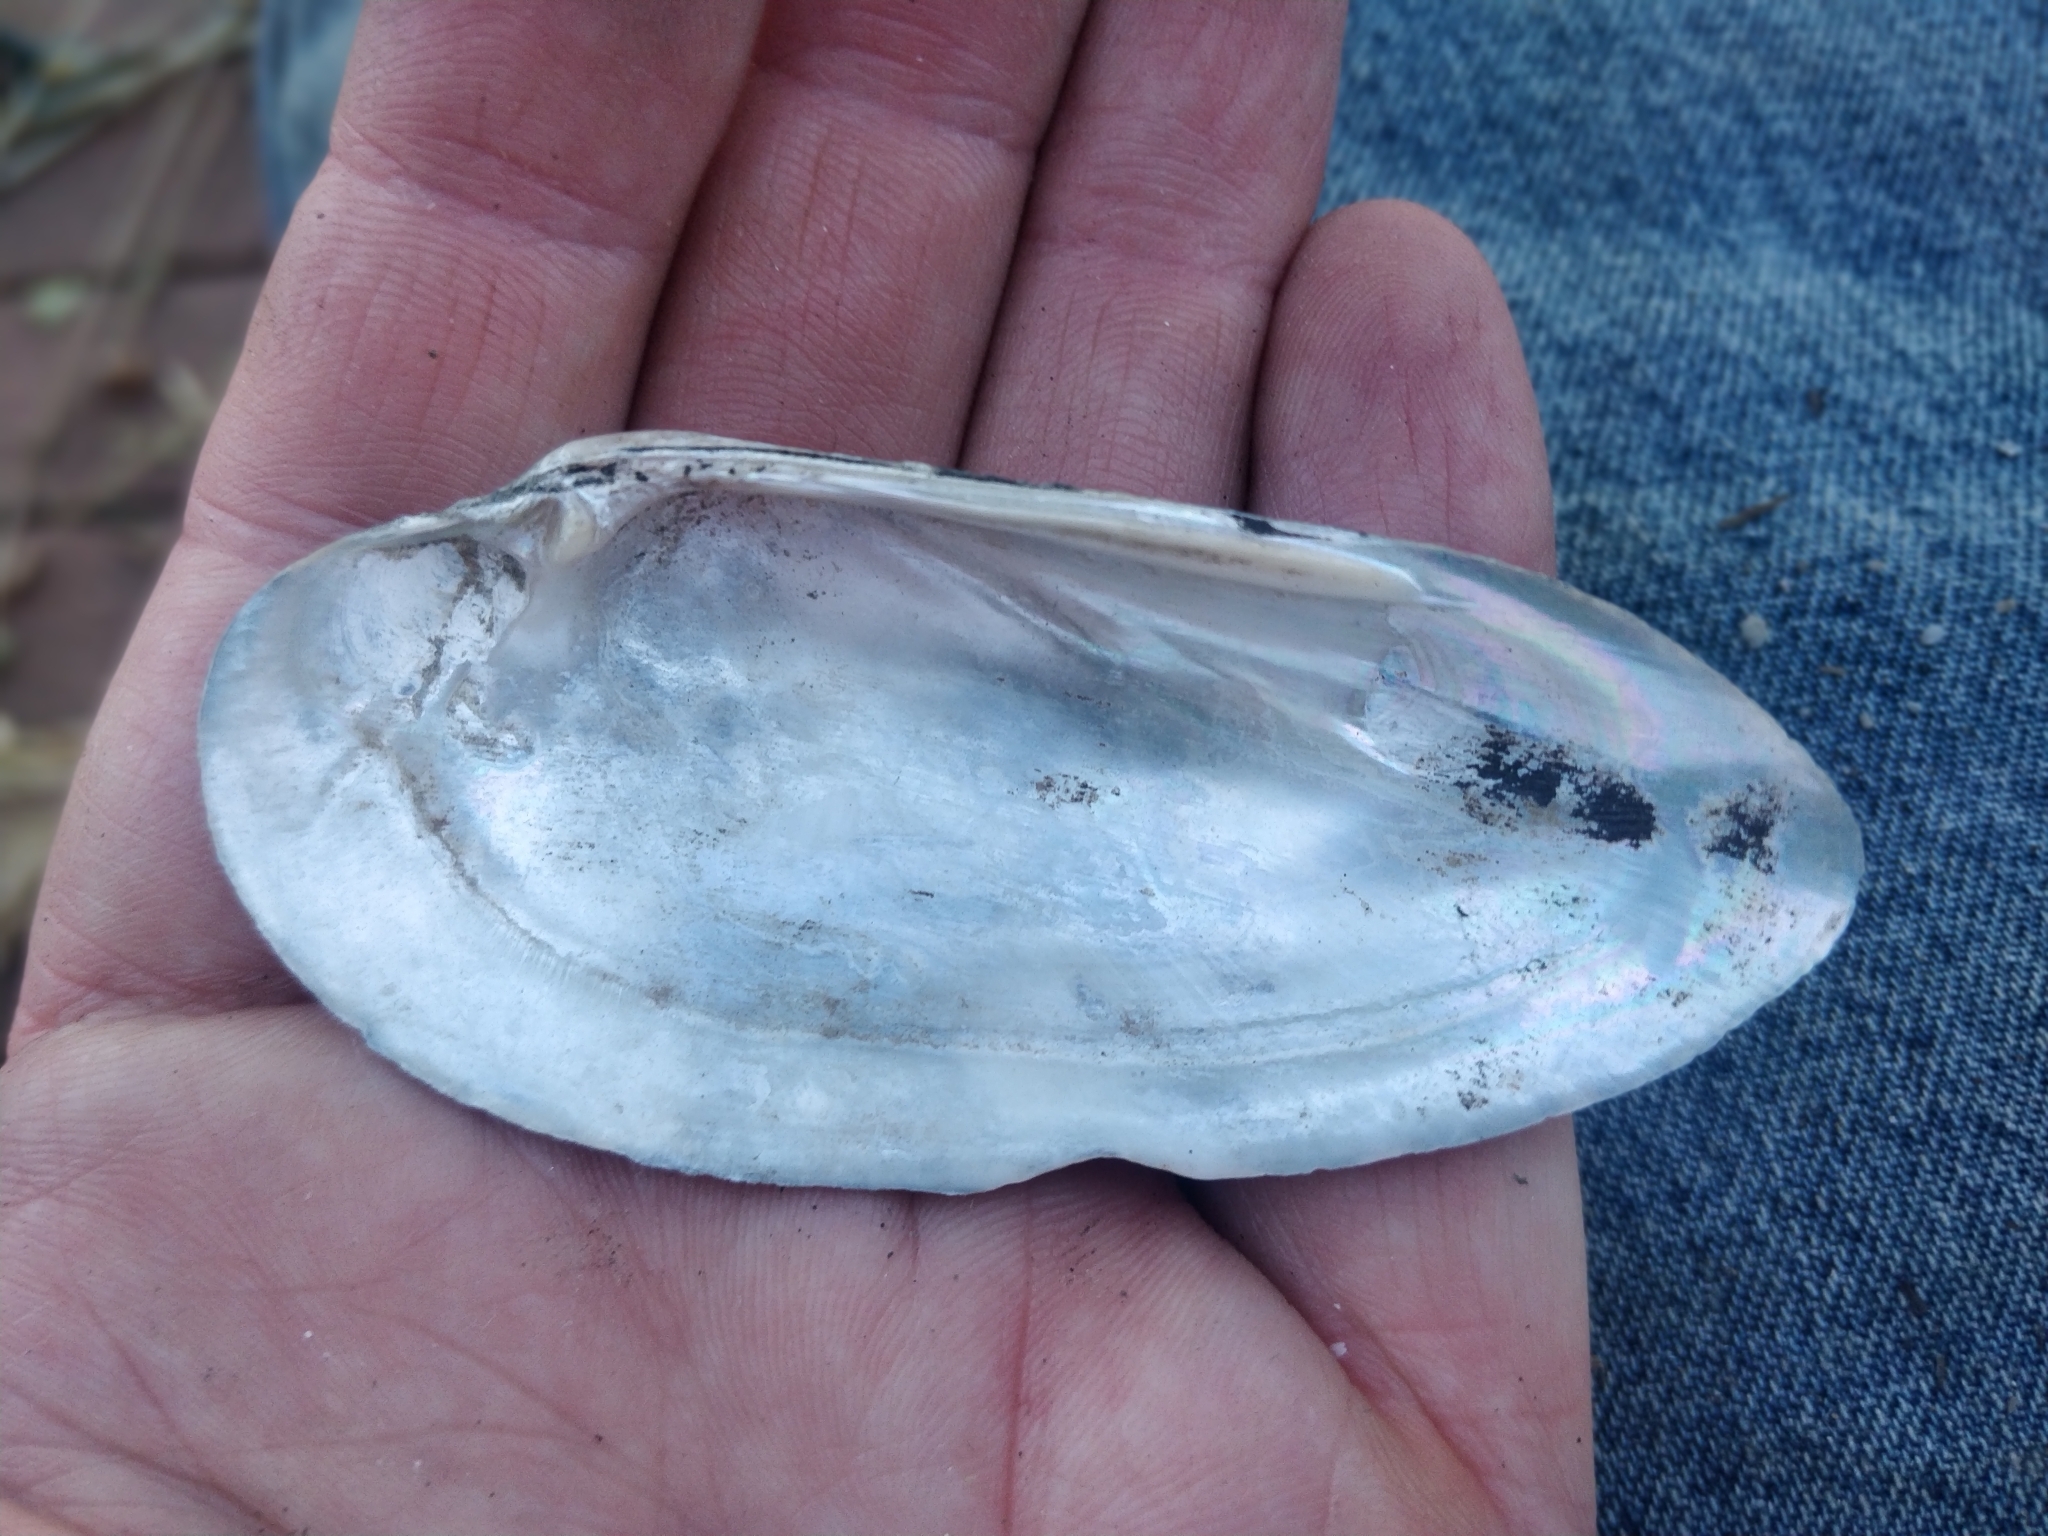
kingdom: Animalia
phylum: Mollusca
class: Bivalvia
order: Unionida
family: Unionidae
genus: Ligumia
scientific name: Ligumia recta
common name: Black sandshell
